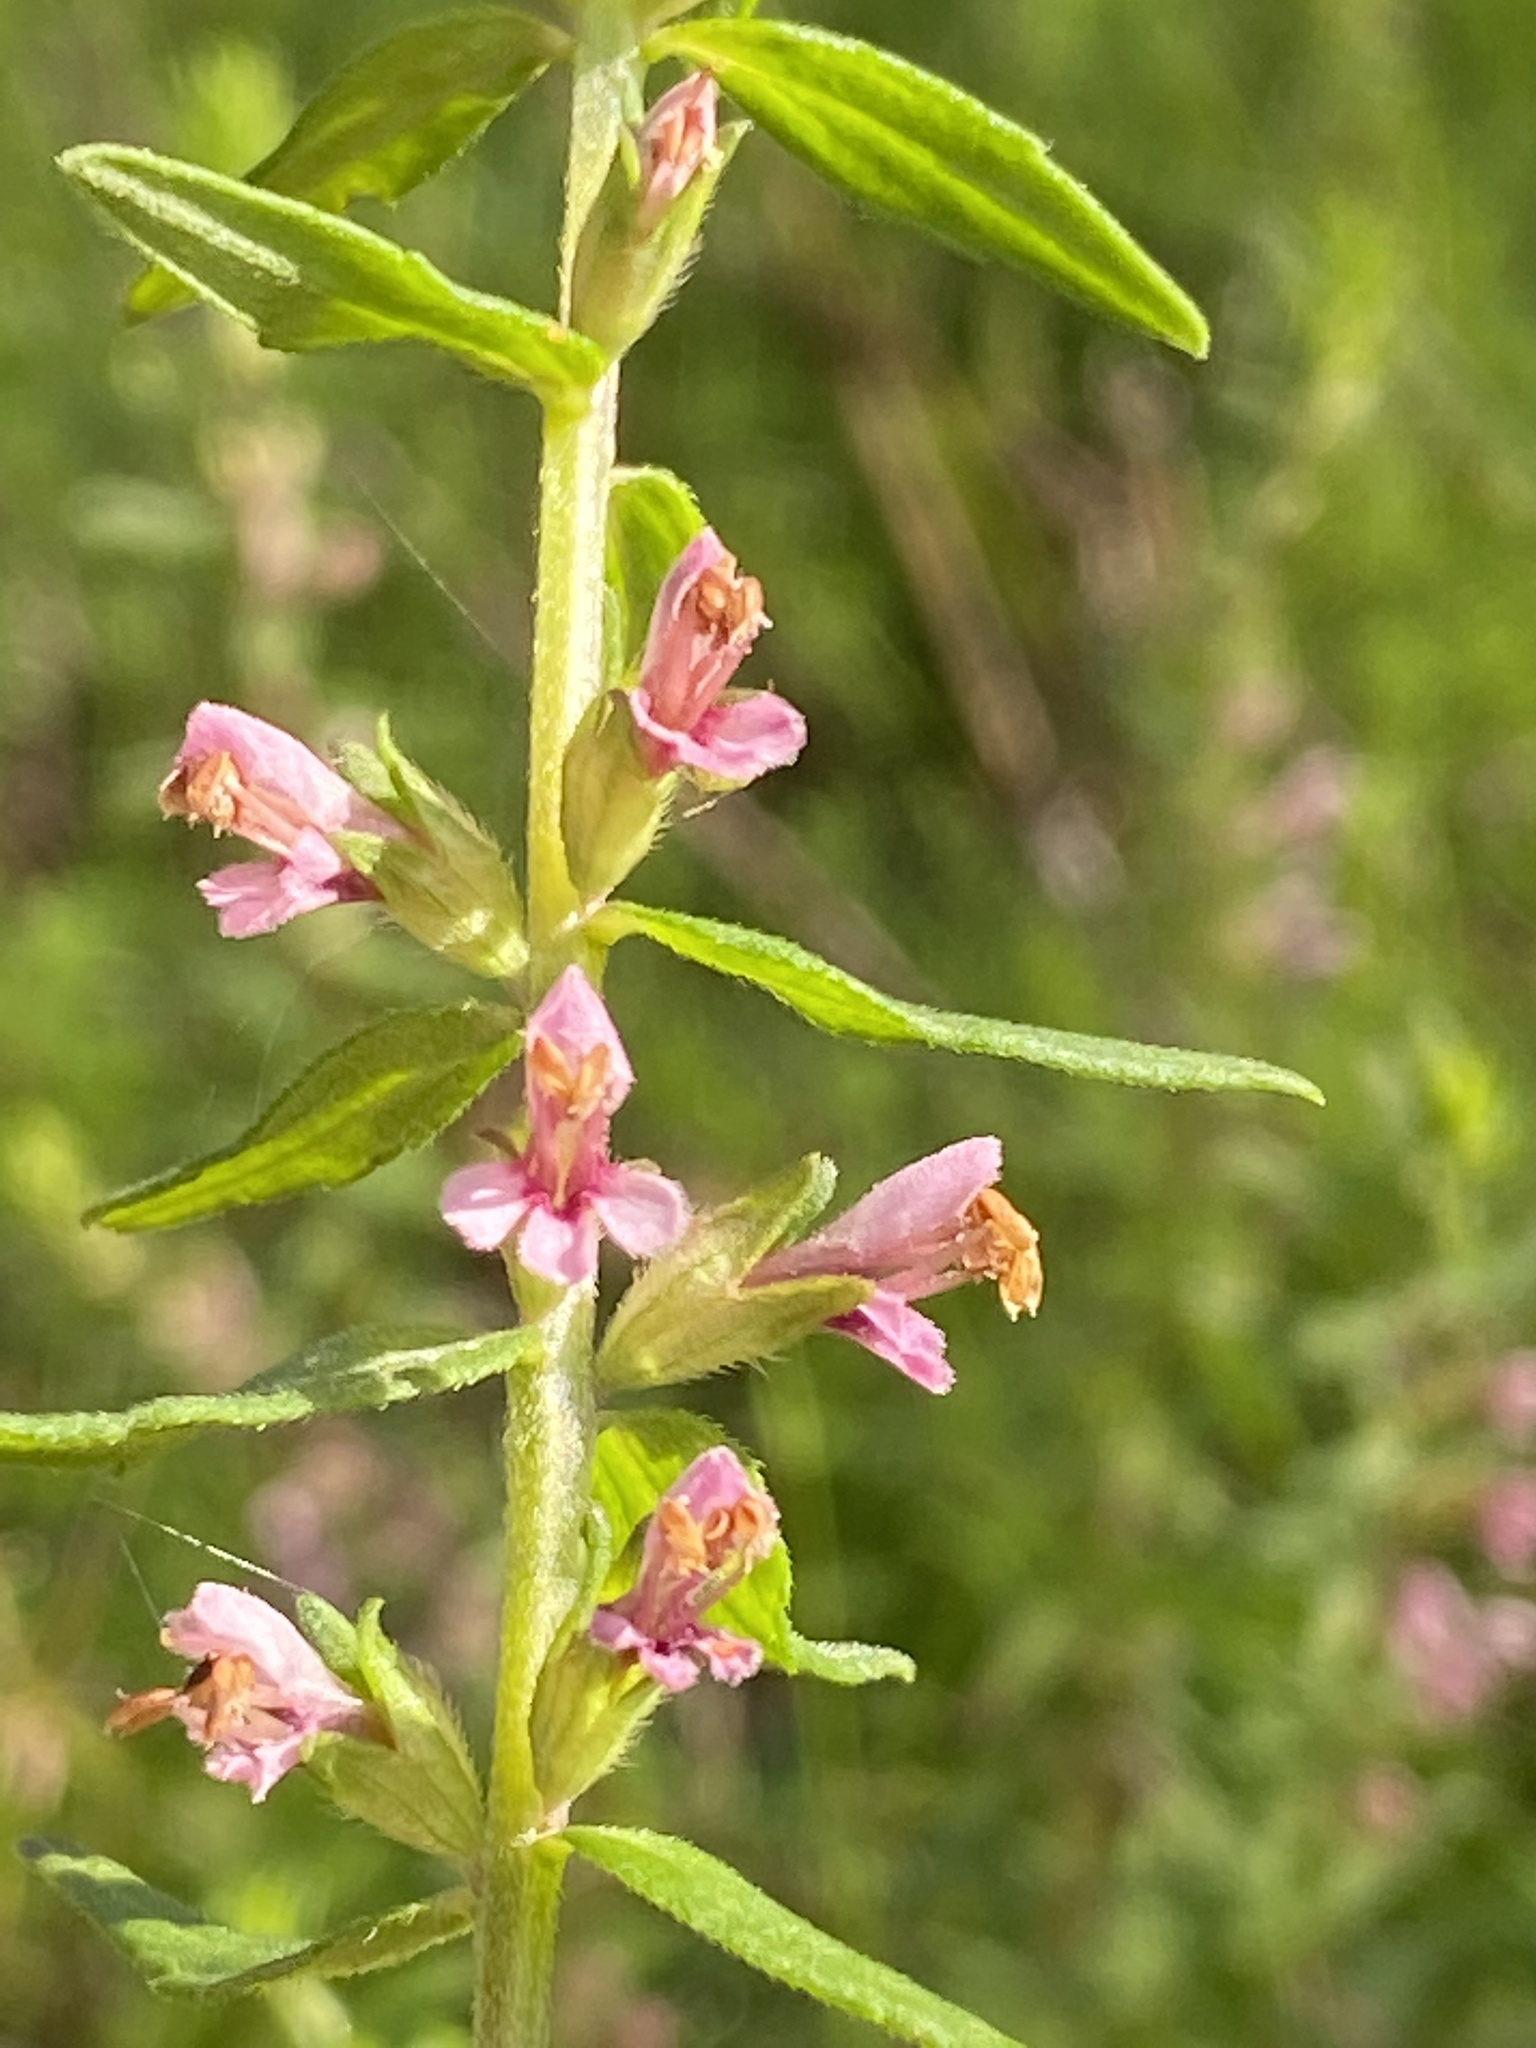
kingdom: Plantae
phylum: Tracheophyta
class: Magnoliopsida
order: Lamiales
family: Orobanchaceae
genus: Odontites
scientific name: Odontites vulgaris
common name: Broomrape
